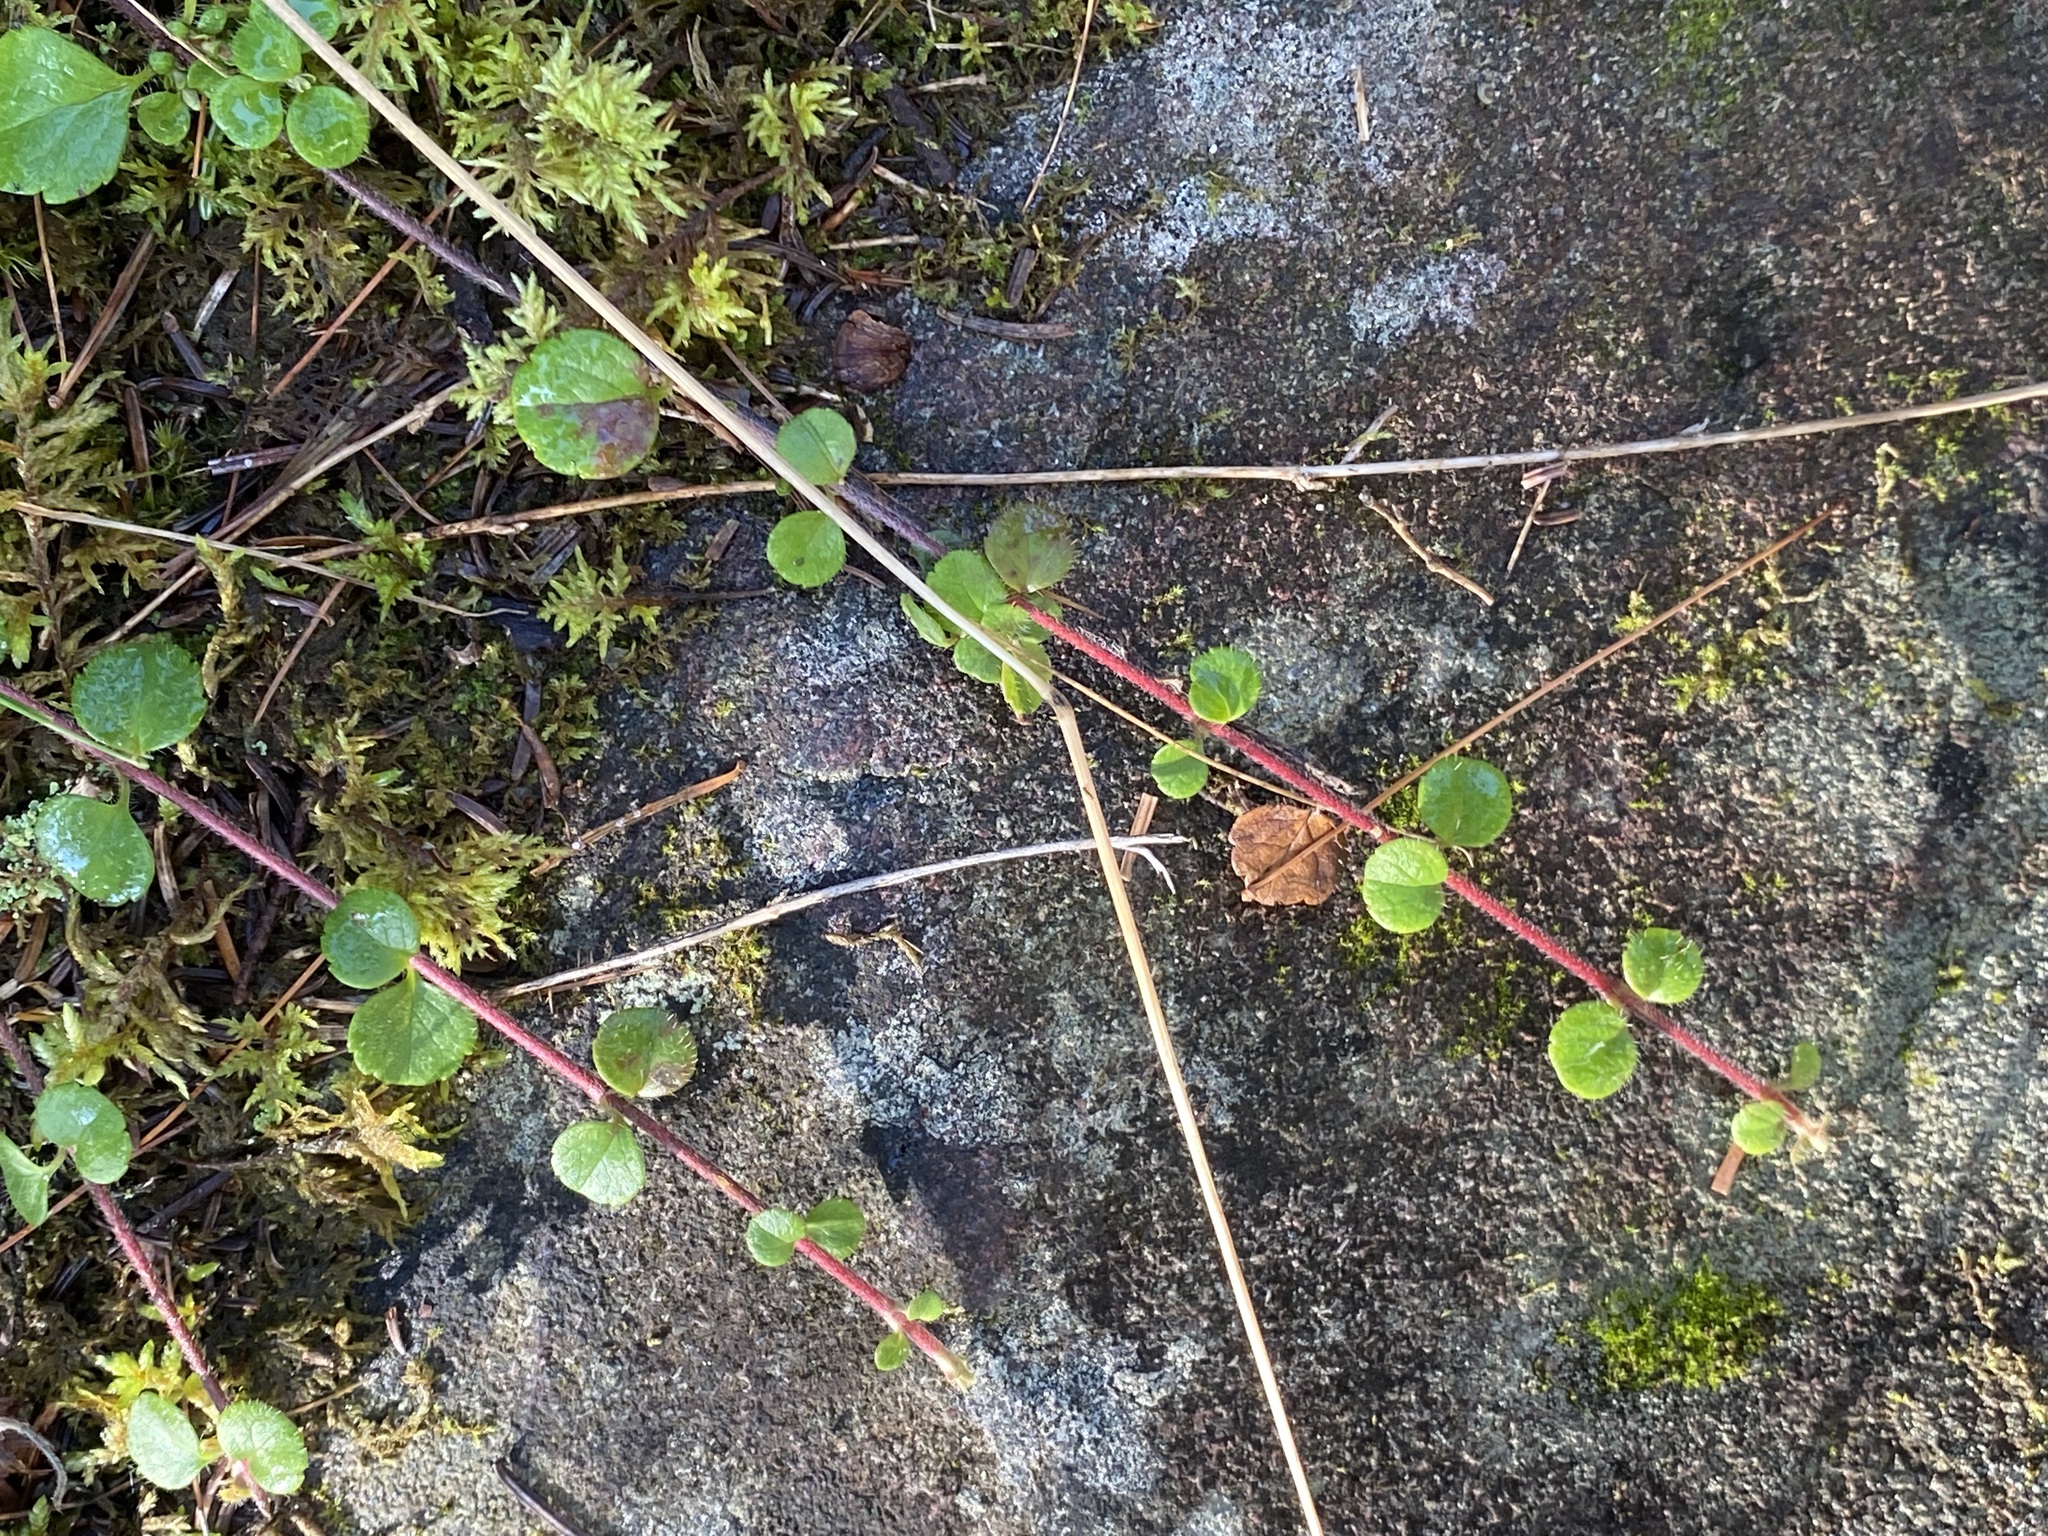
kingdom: Plantae
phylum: Tracheophyta
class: Magnoliopsida
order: Dipsacales
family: Caprifoliaceae
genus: Linnaea
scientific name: Linnaea borealis
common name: Twinflower
